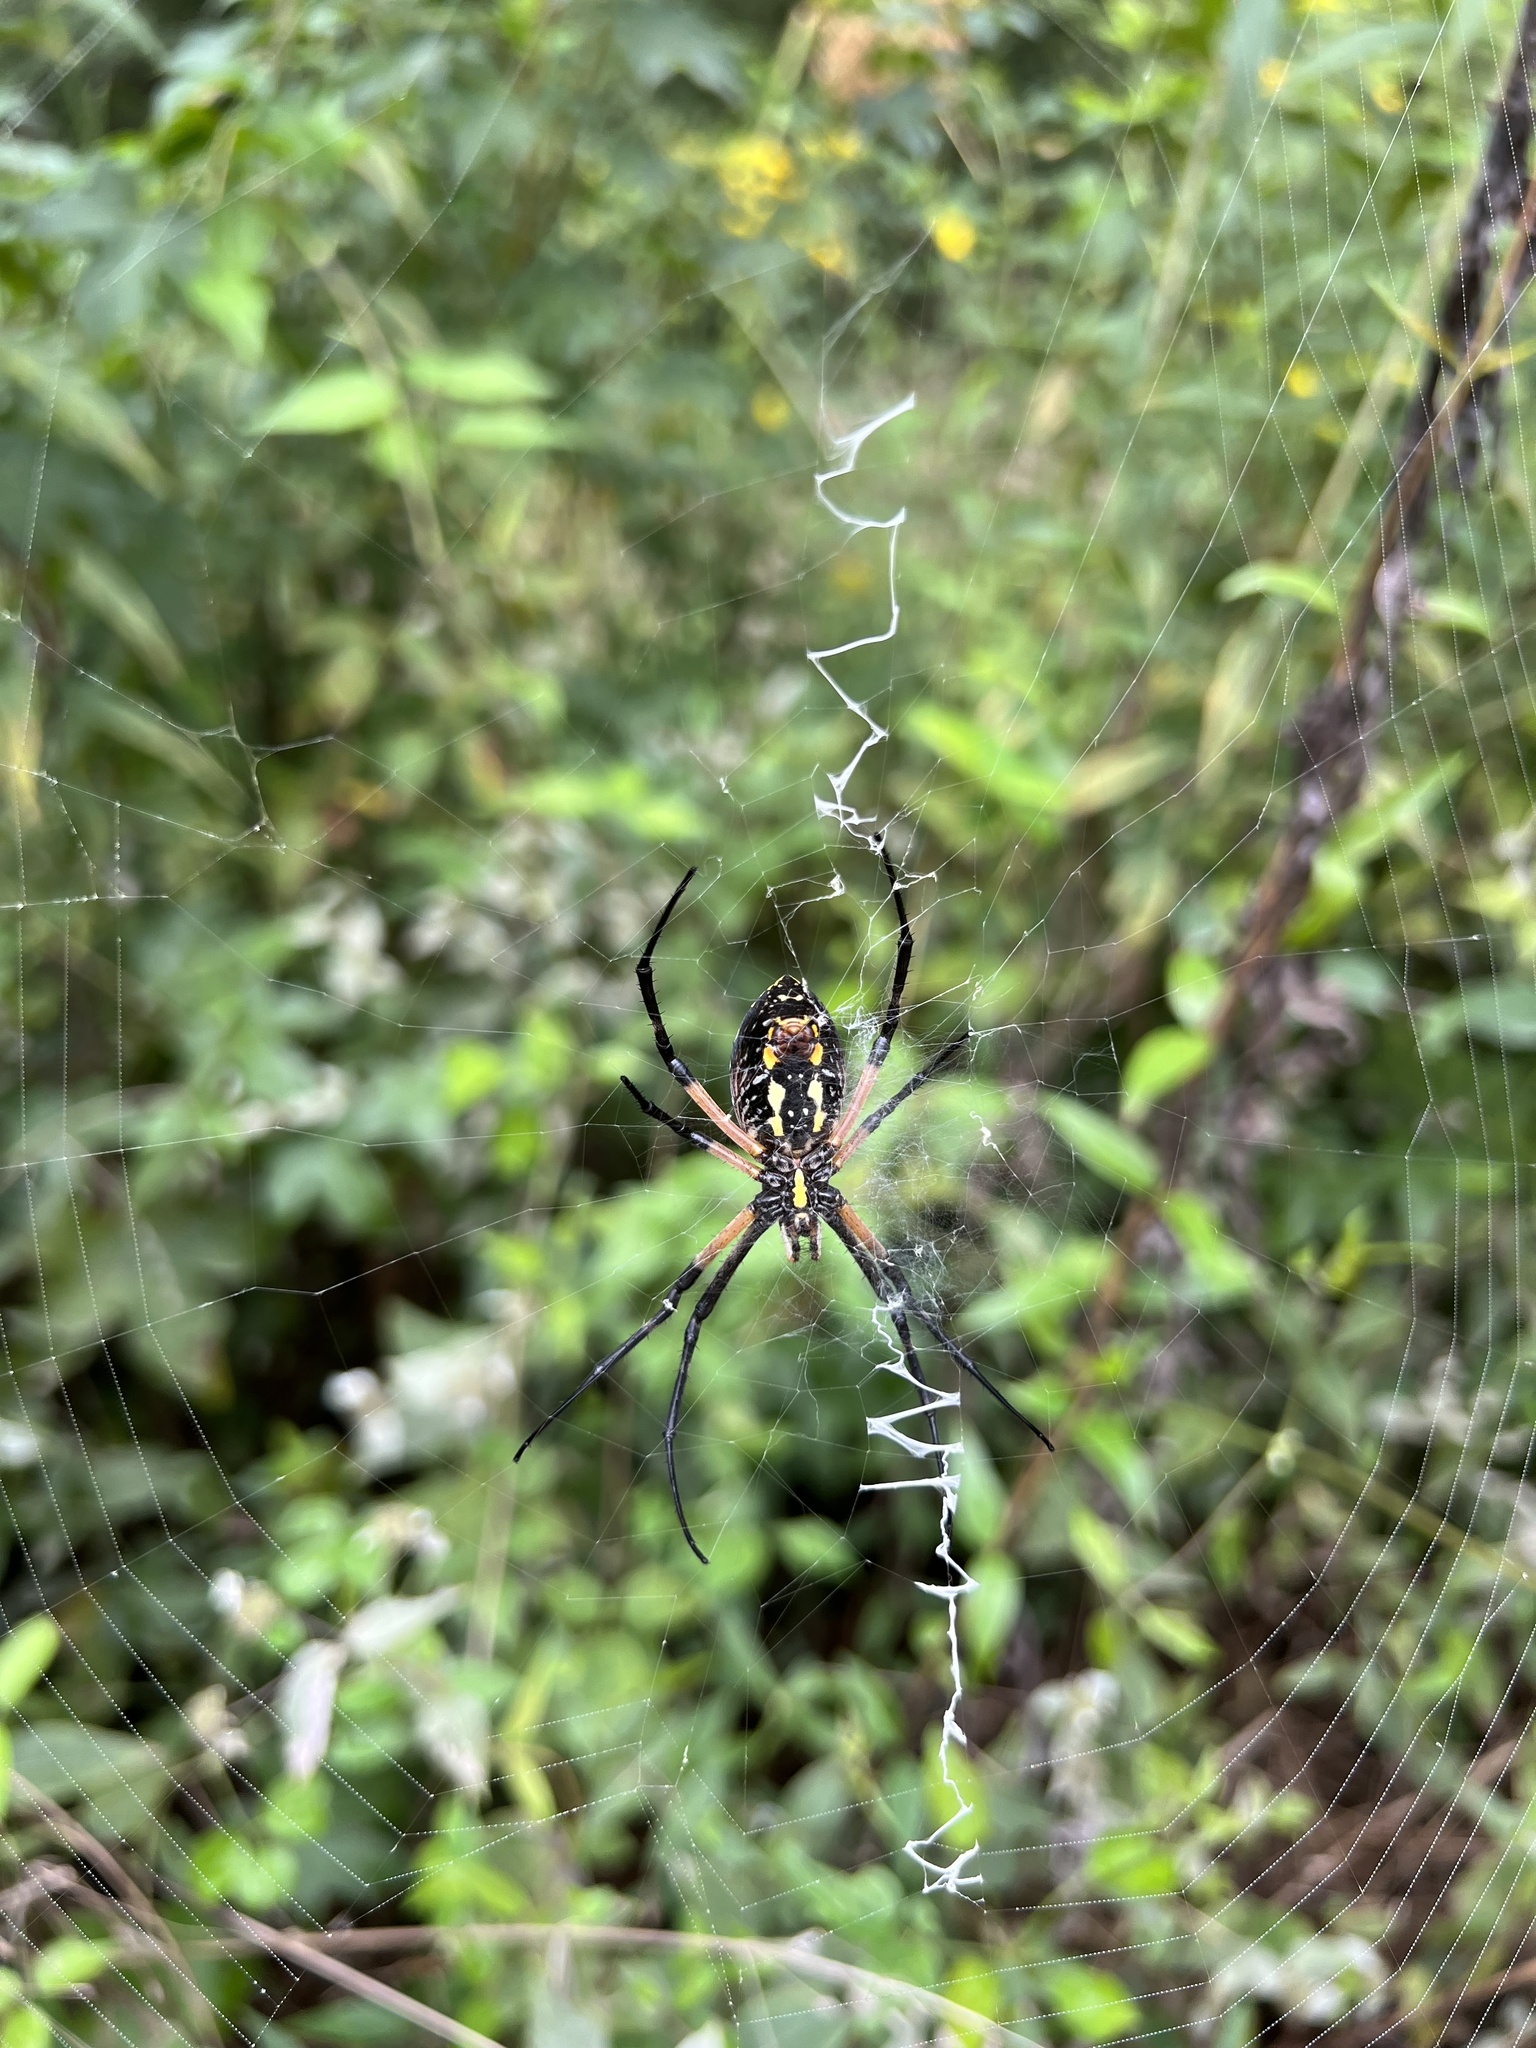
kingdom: Animalia
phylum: Arthropoda
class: Arachnida
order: Araneae
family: Araneidae
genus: Argiope
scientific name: Argiope aurantia
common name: Orb weavers
